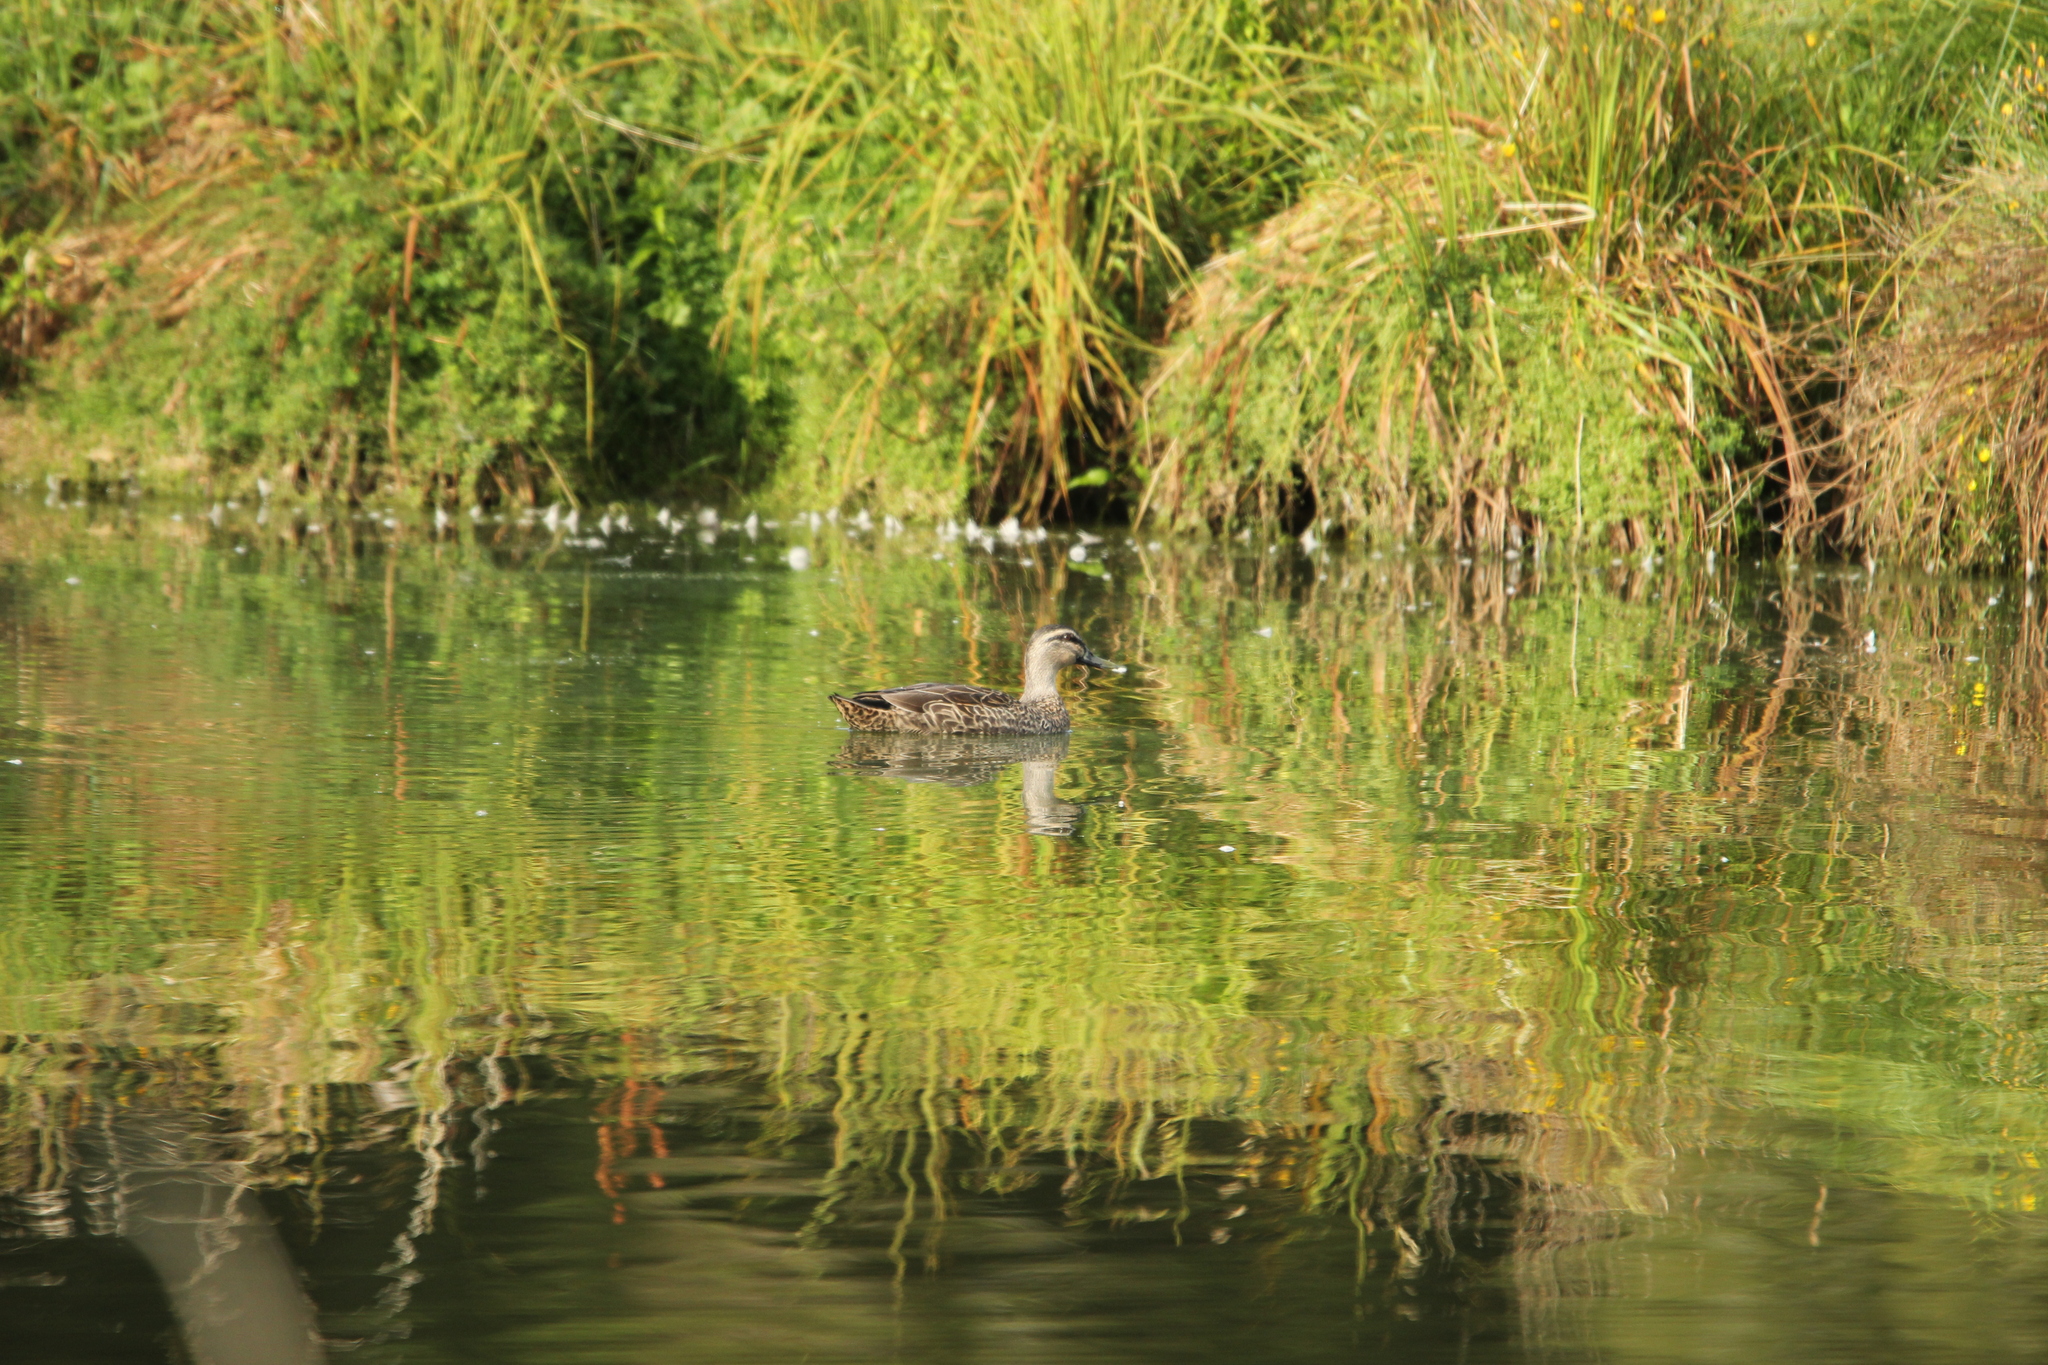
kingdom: Animalia
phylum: Chordata
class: Aves
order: Anseriformes
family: Anatidae
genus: Anas
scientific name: Anas
